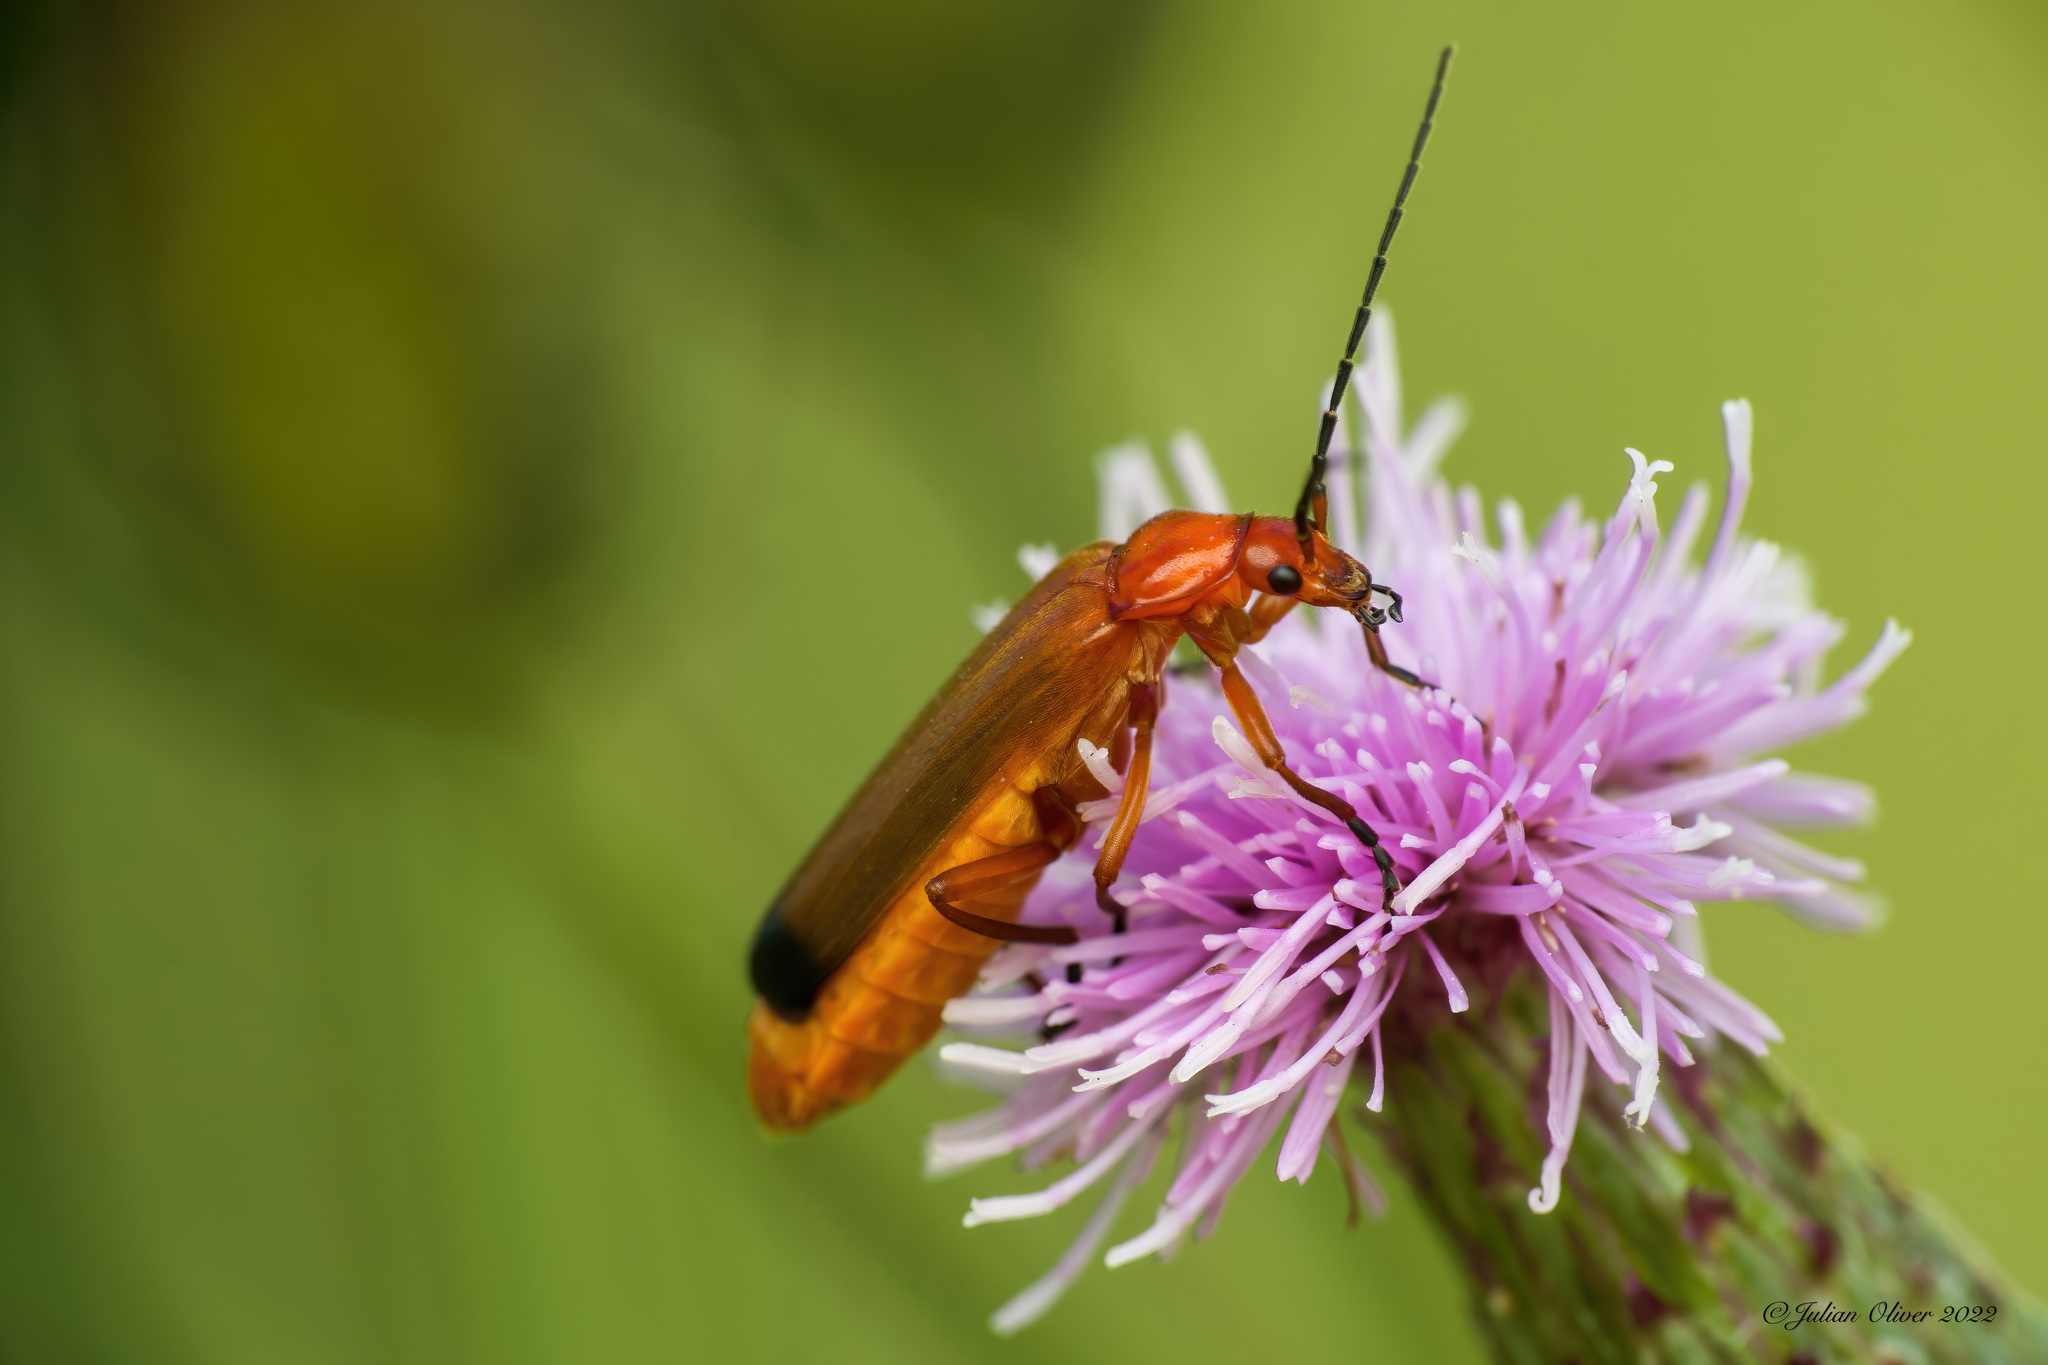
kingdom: Animalia
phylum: Arthropoda
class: Insecta
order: Coleoptera
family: Cantharidae
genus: Rhagonycha
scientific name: Rhagonycha fulva
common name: Common red soldier beetle
